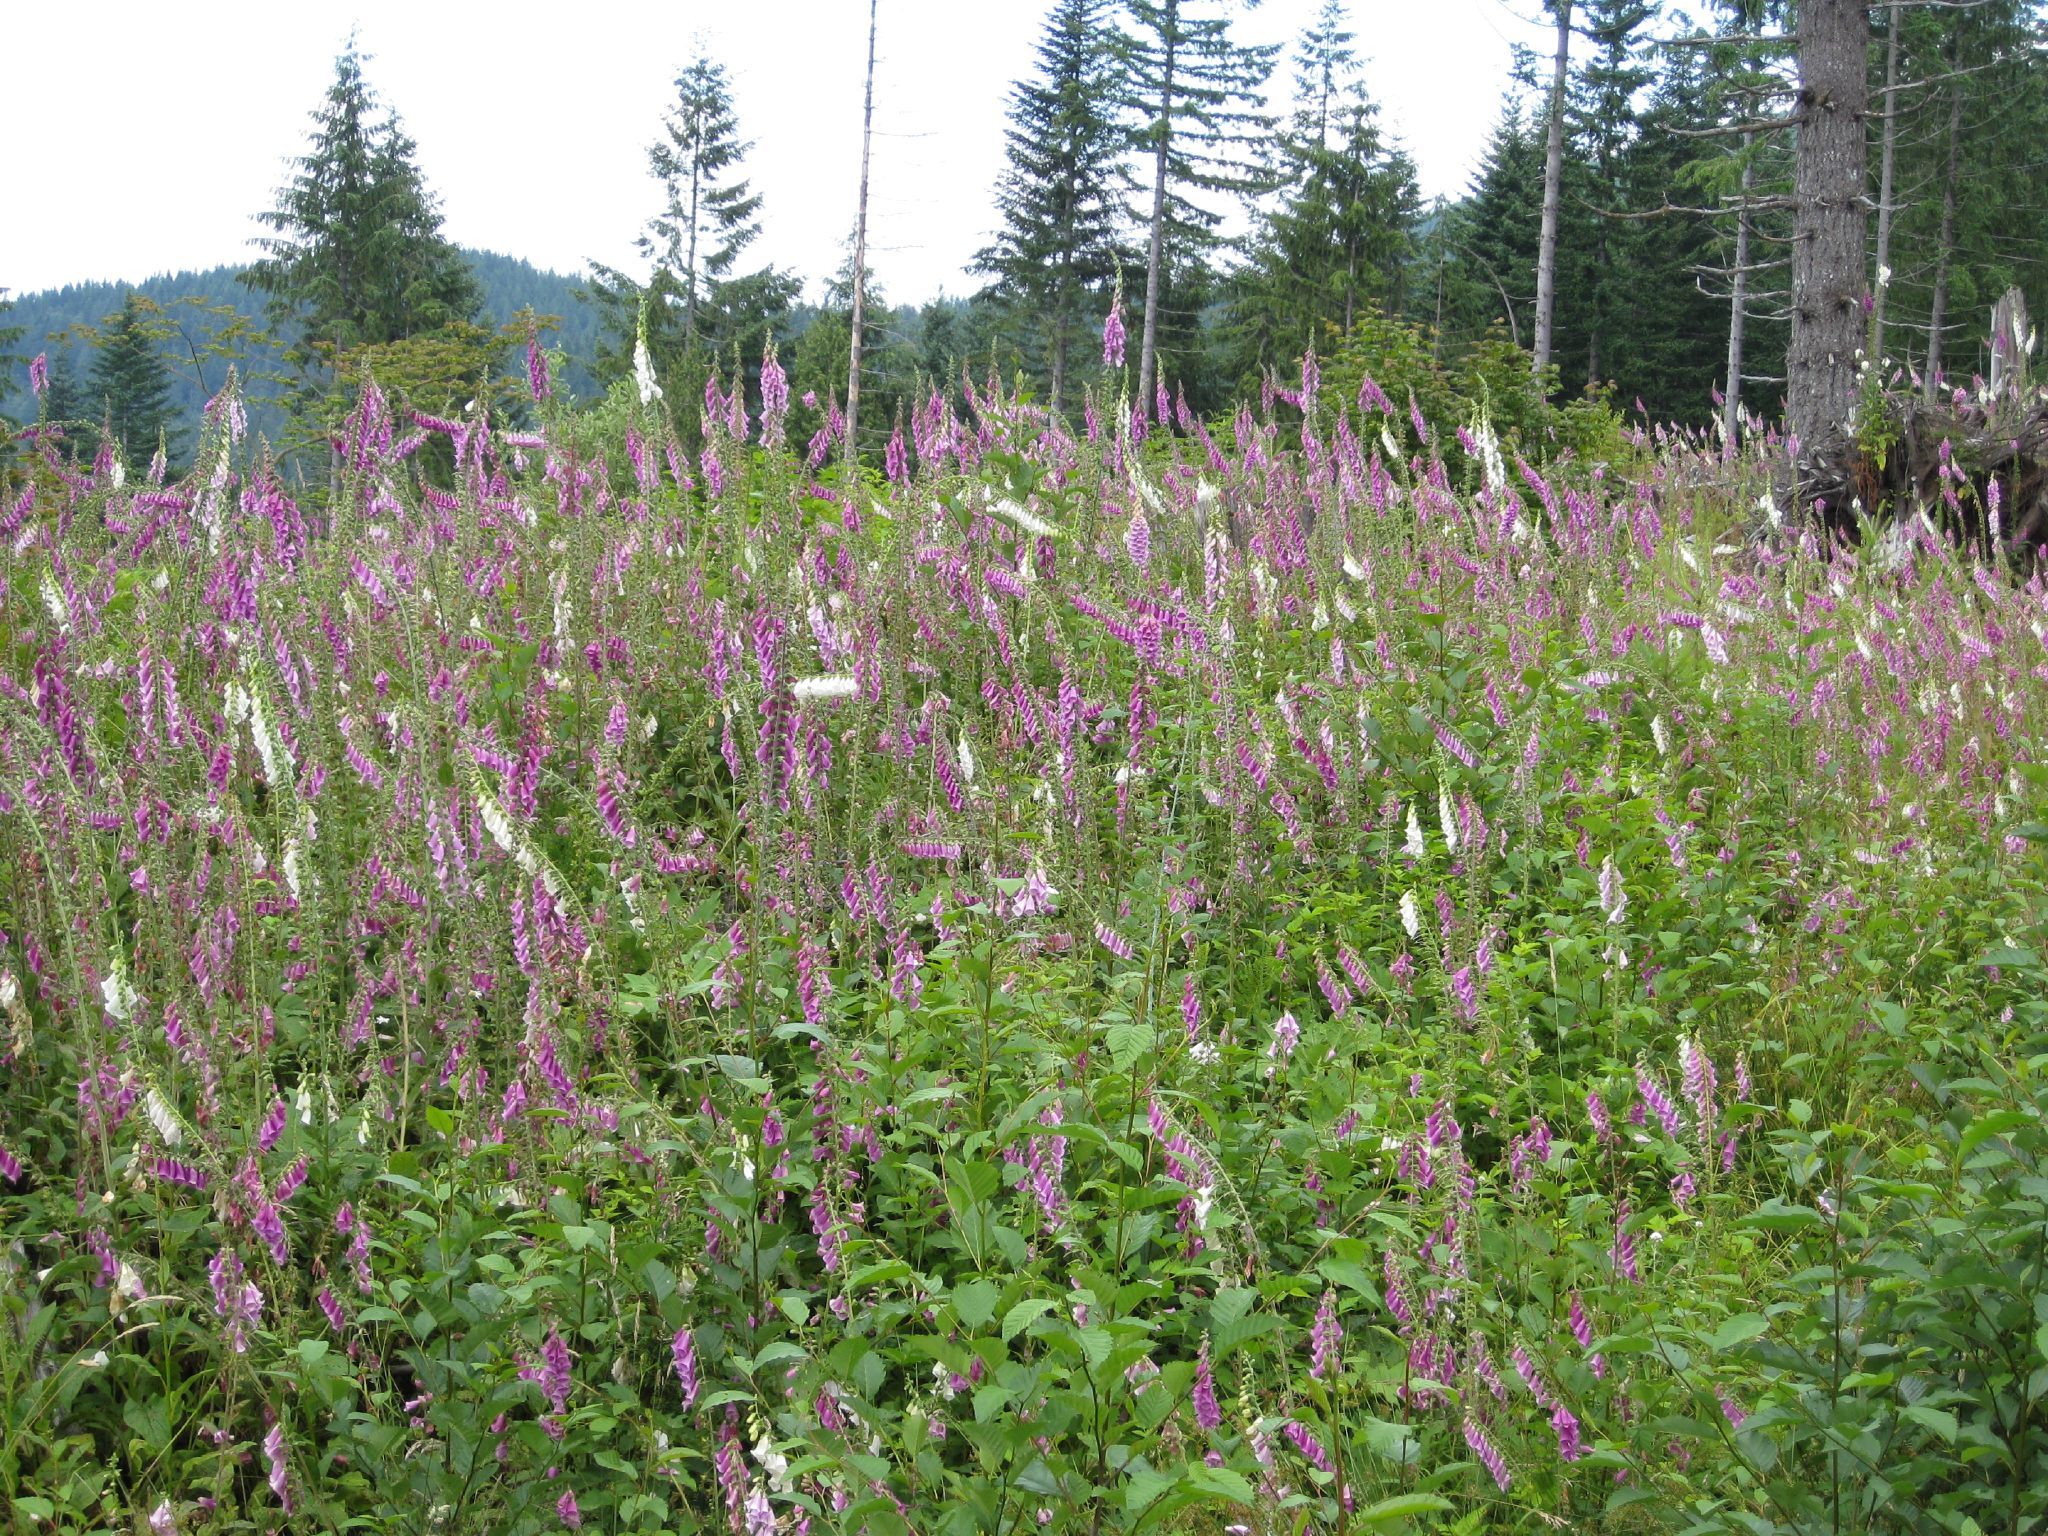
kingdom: Plantae
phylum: Tracheophyta
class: Magnoliopsida
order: Lamiales
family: Plantaginaceae
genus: Digitalis
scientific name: Digitalis purpurea
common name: Foxglove
